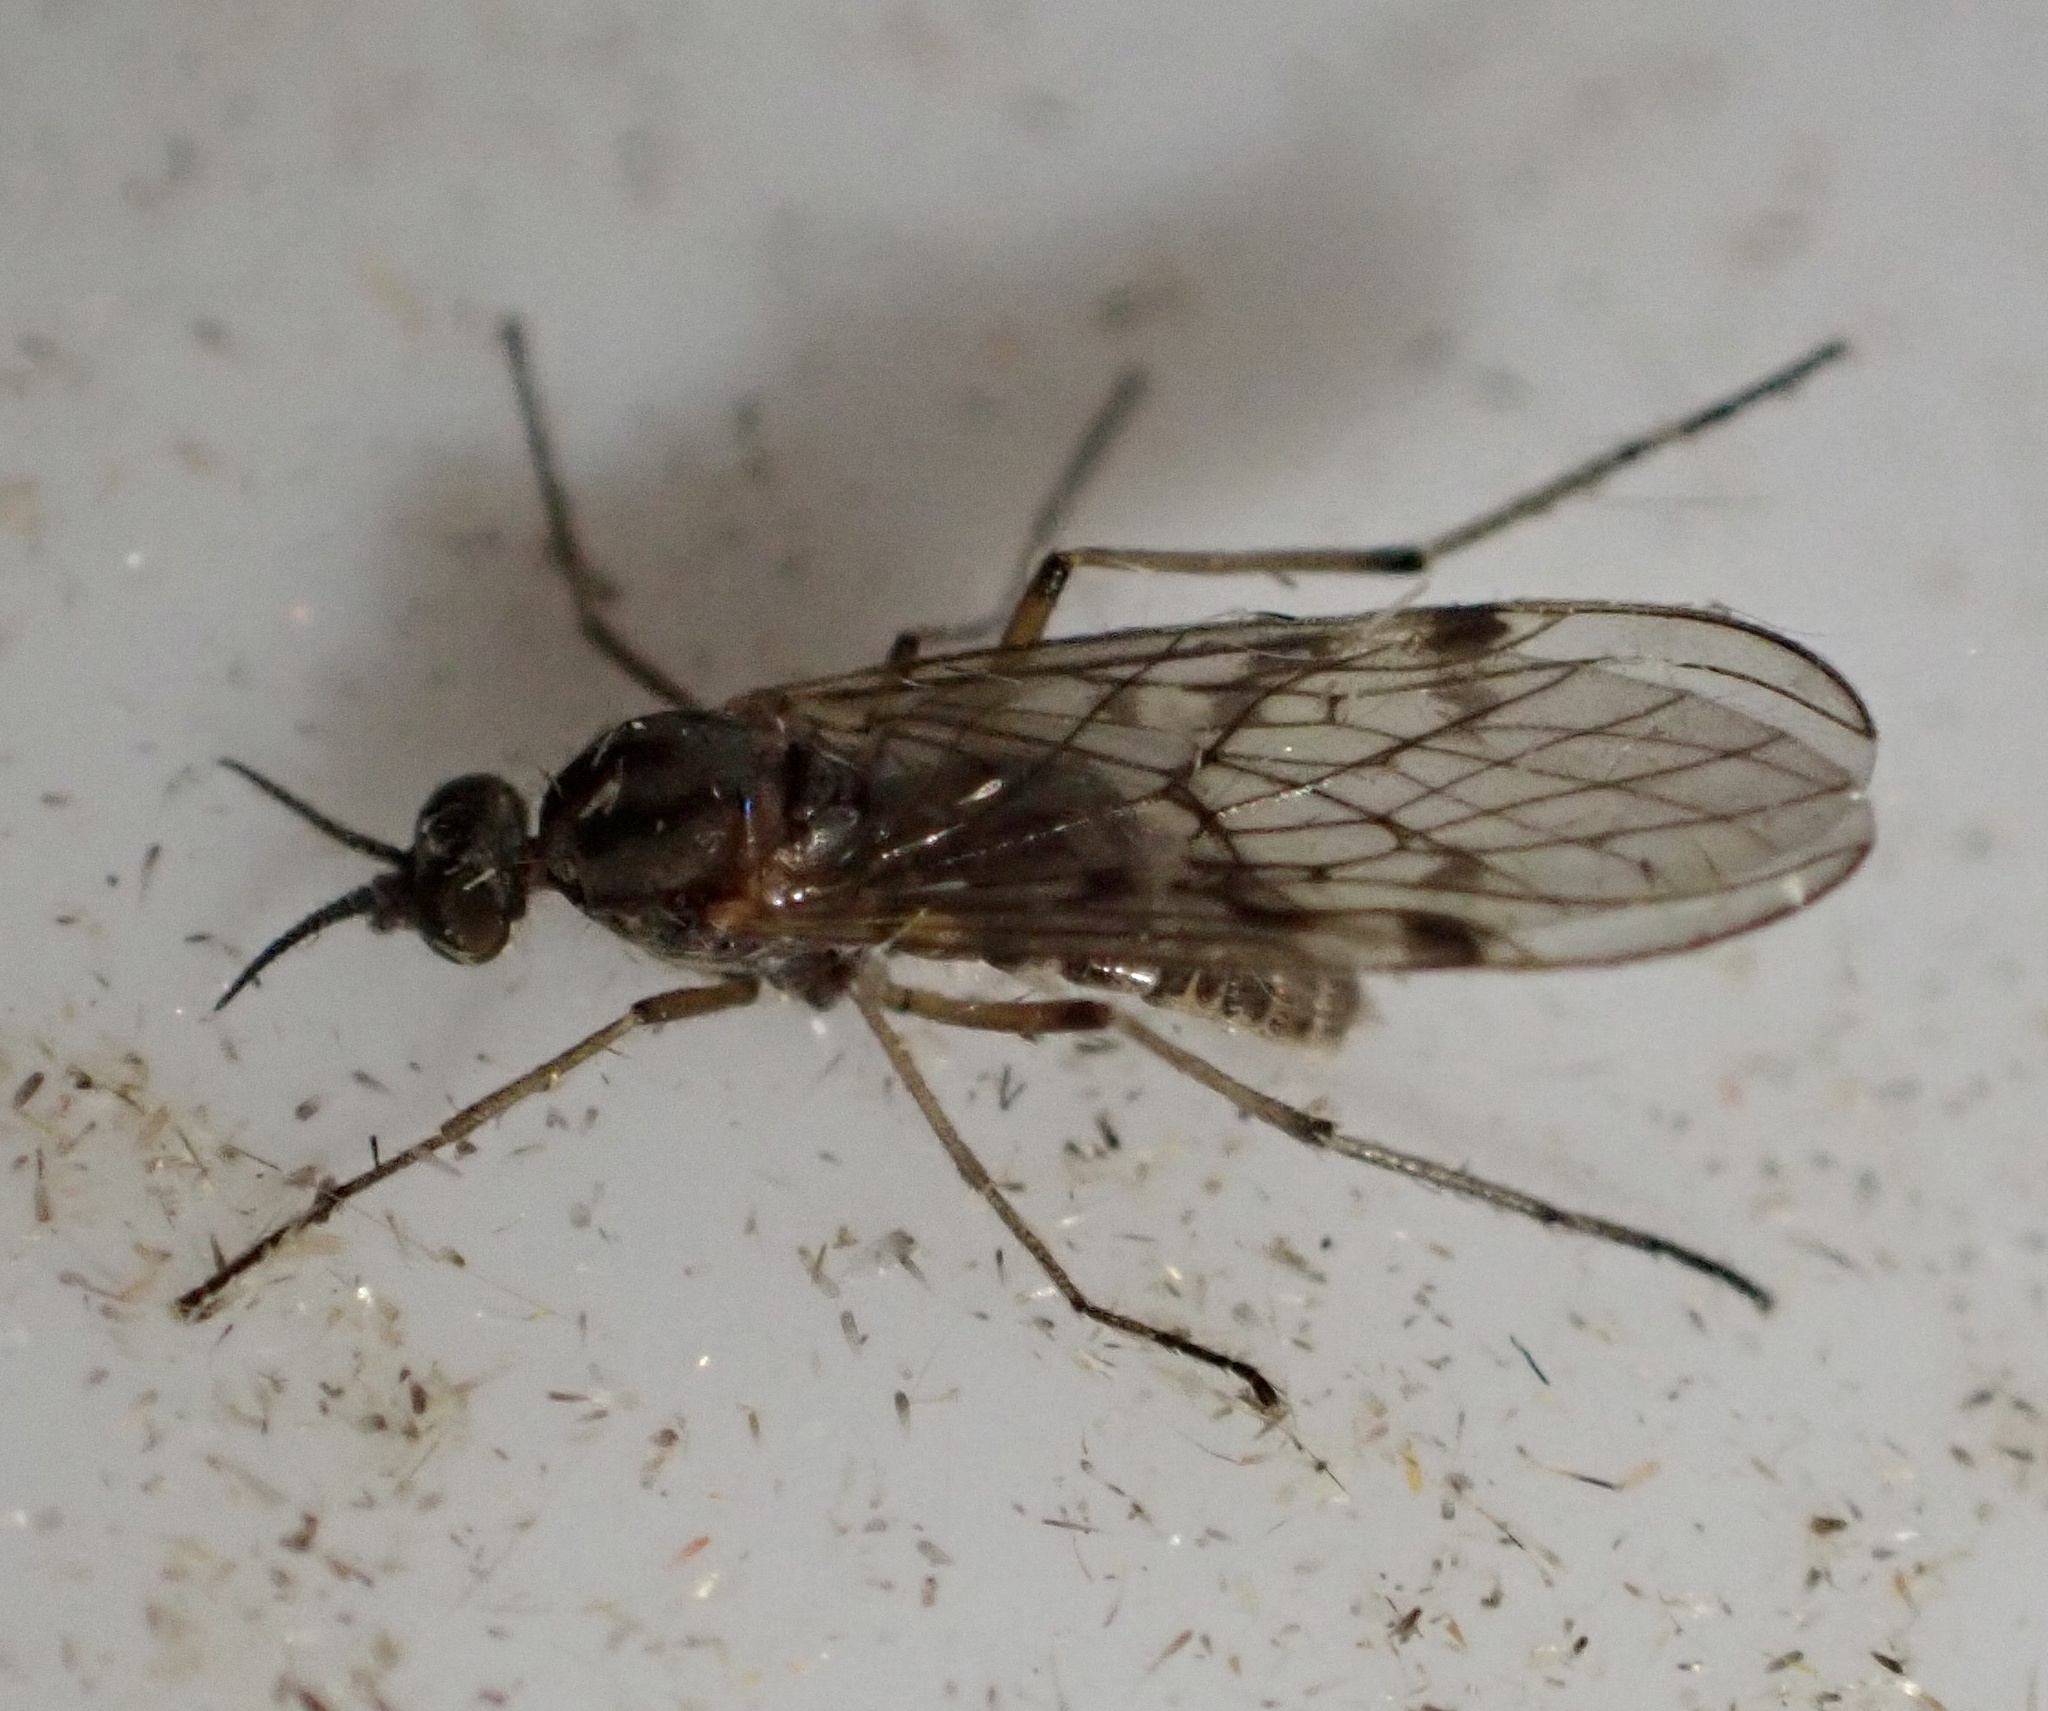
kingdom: Animalia
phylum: Arthropoda
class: Insecta
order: Diptera
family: Anisopodidae
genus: Sylvicola
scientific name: Sylvicola punctatus
